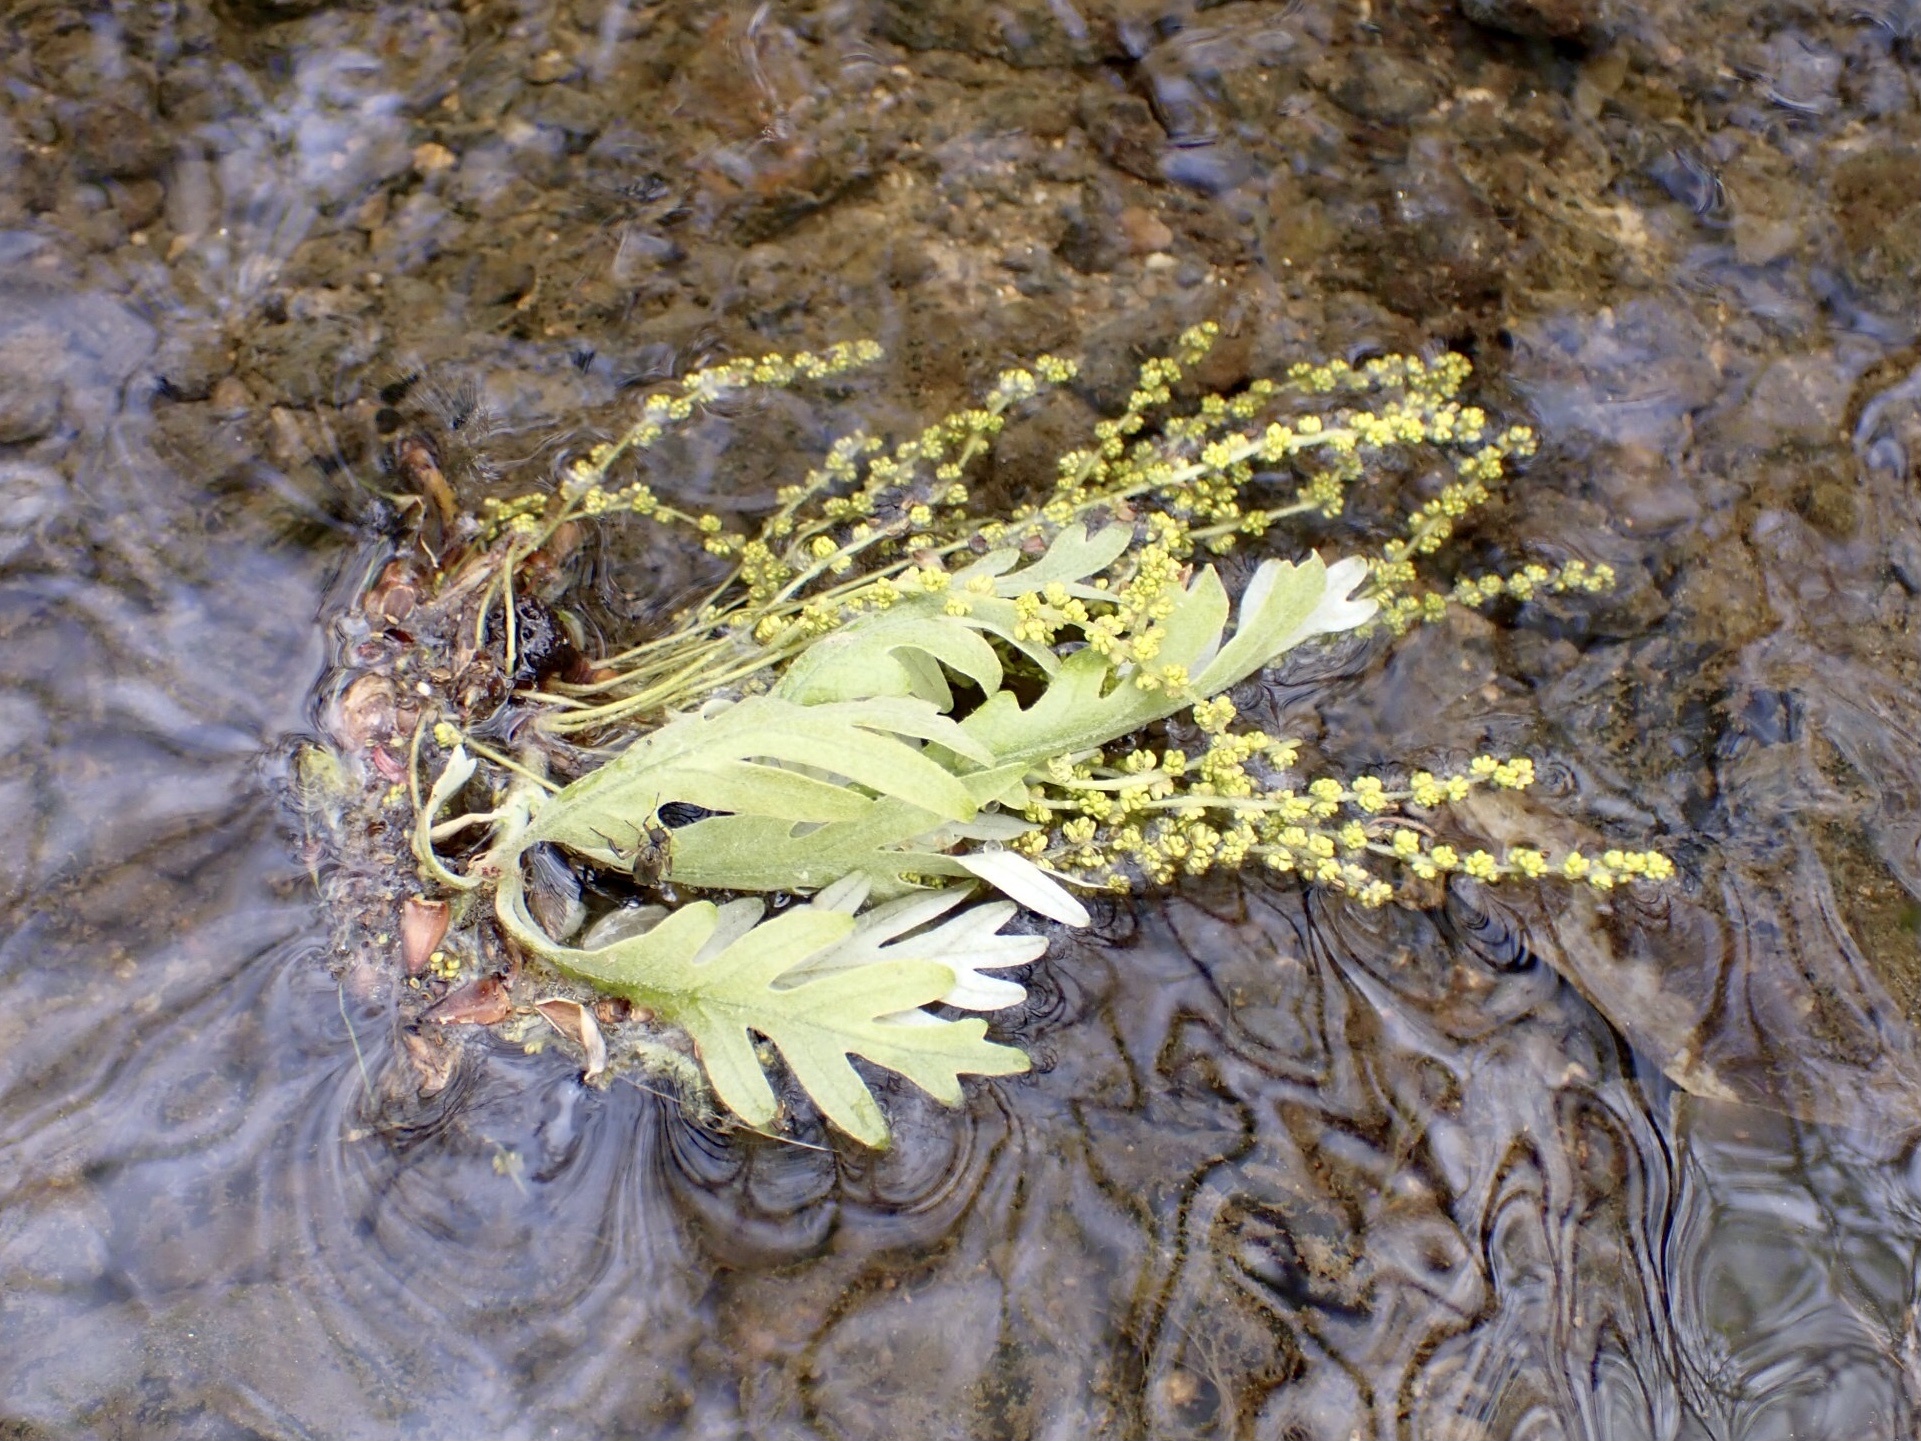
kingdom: Animalia
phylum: Arthropoda
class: Insecta
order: Diptera
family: Bibionidae
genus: Bibio
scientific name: Bibio articulatus
